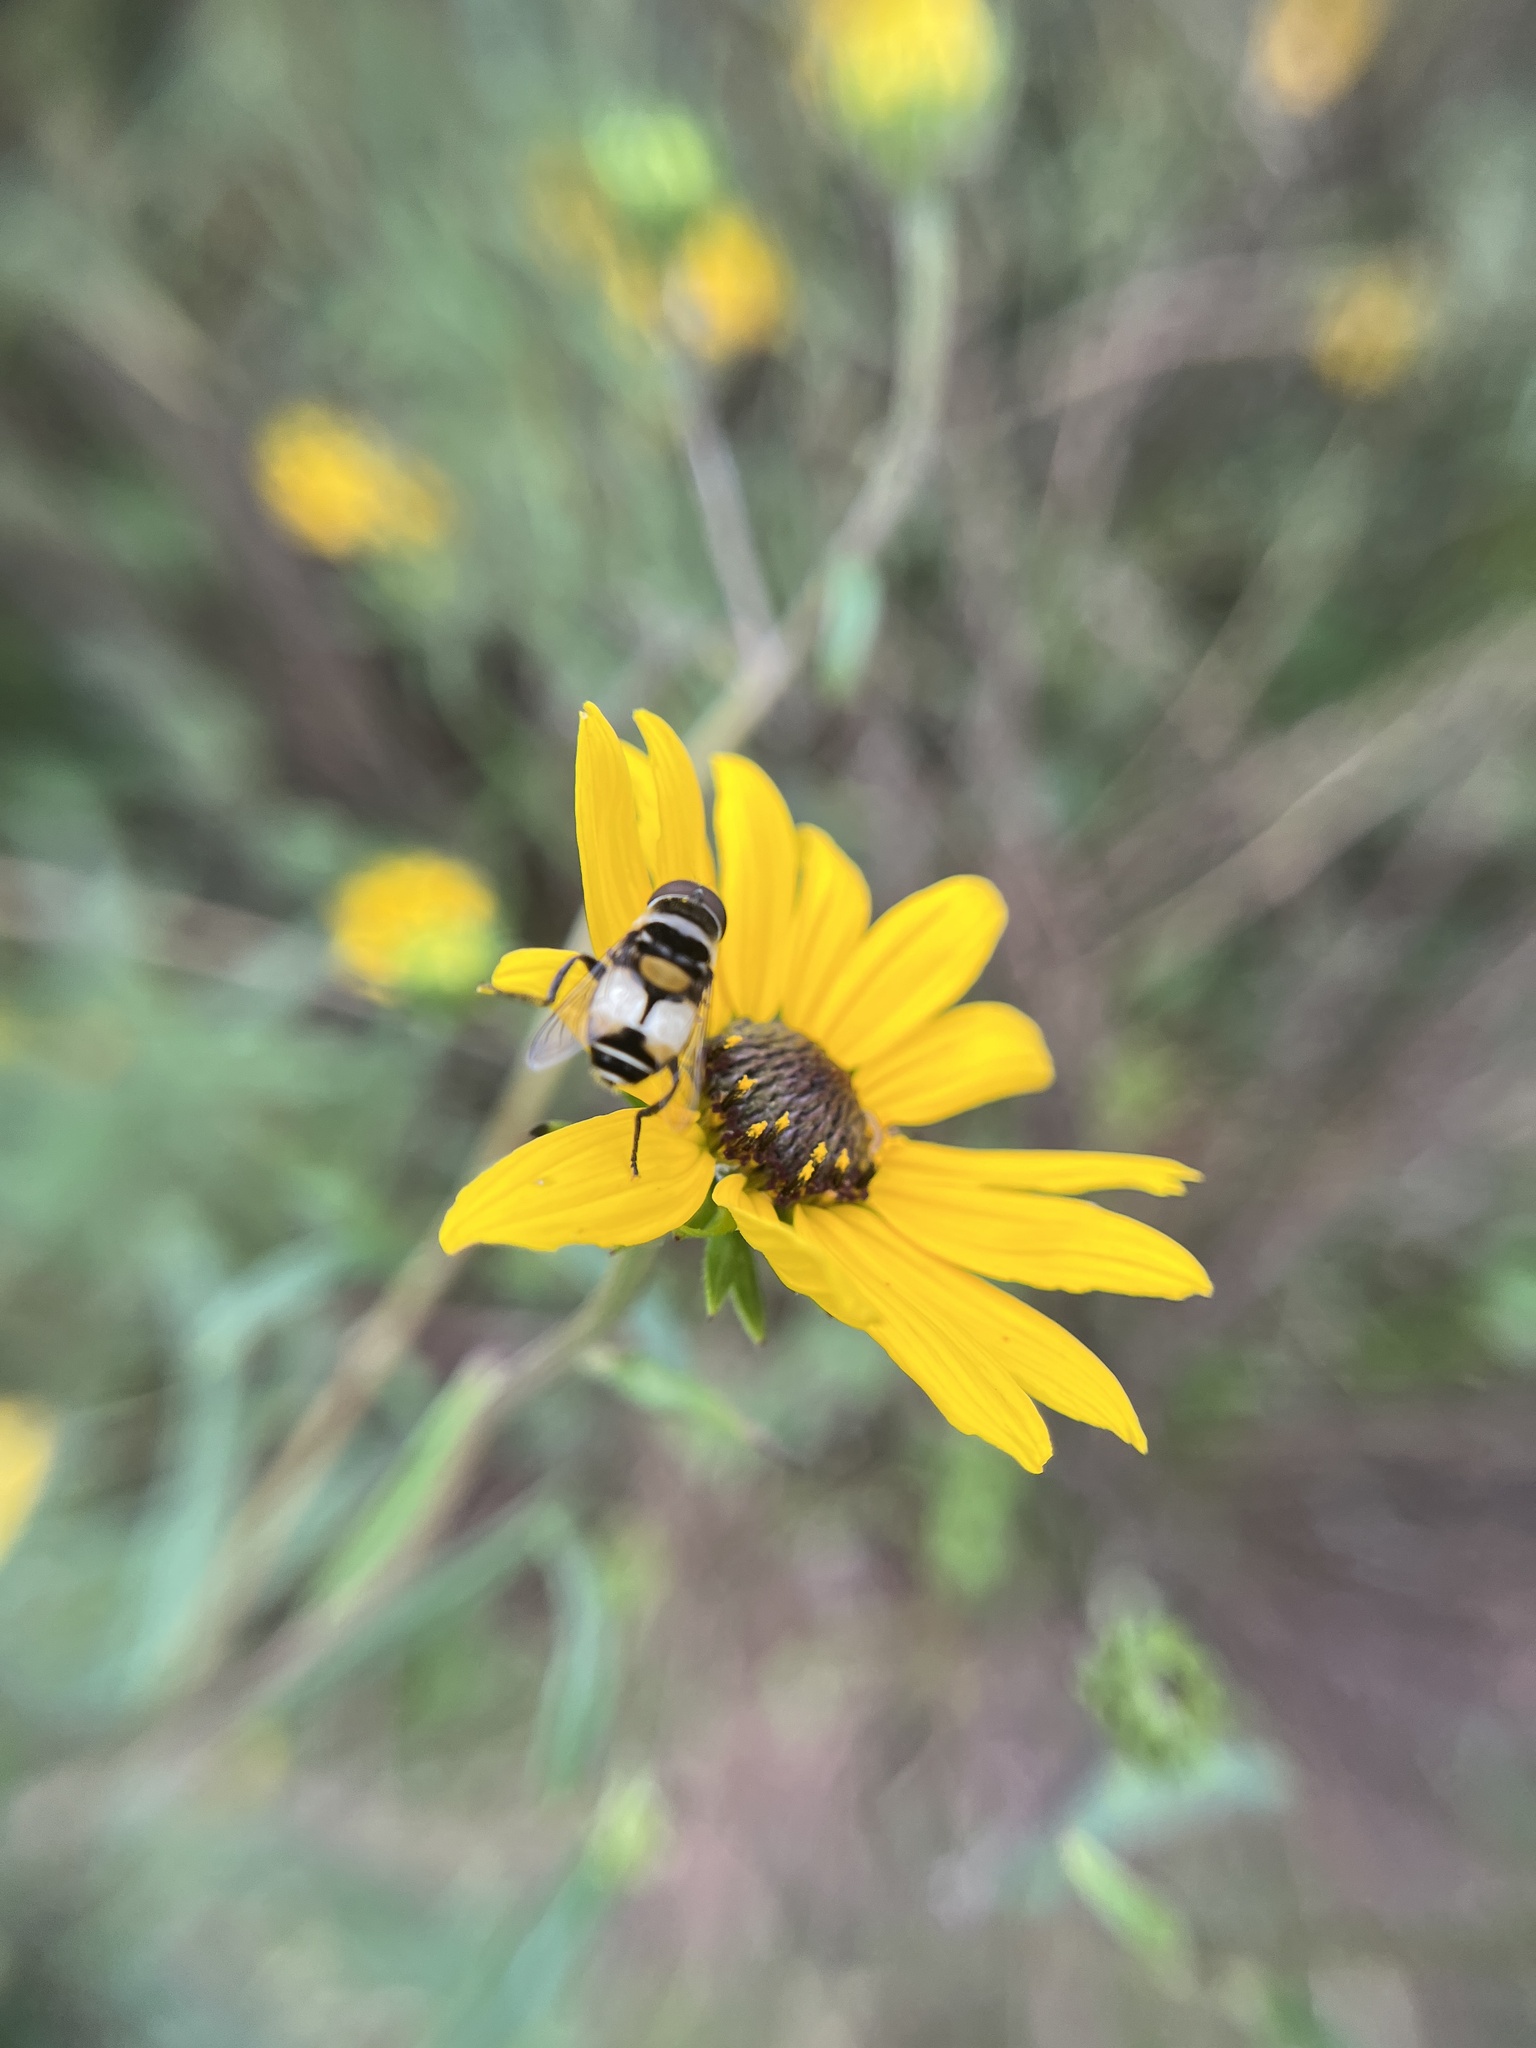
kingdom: Animalia
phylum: Arthropoda
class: Insecta
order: Diptera
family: Syrphidae
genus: Palpada
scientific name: Palpada albifrons
